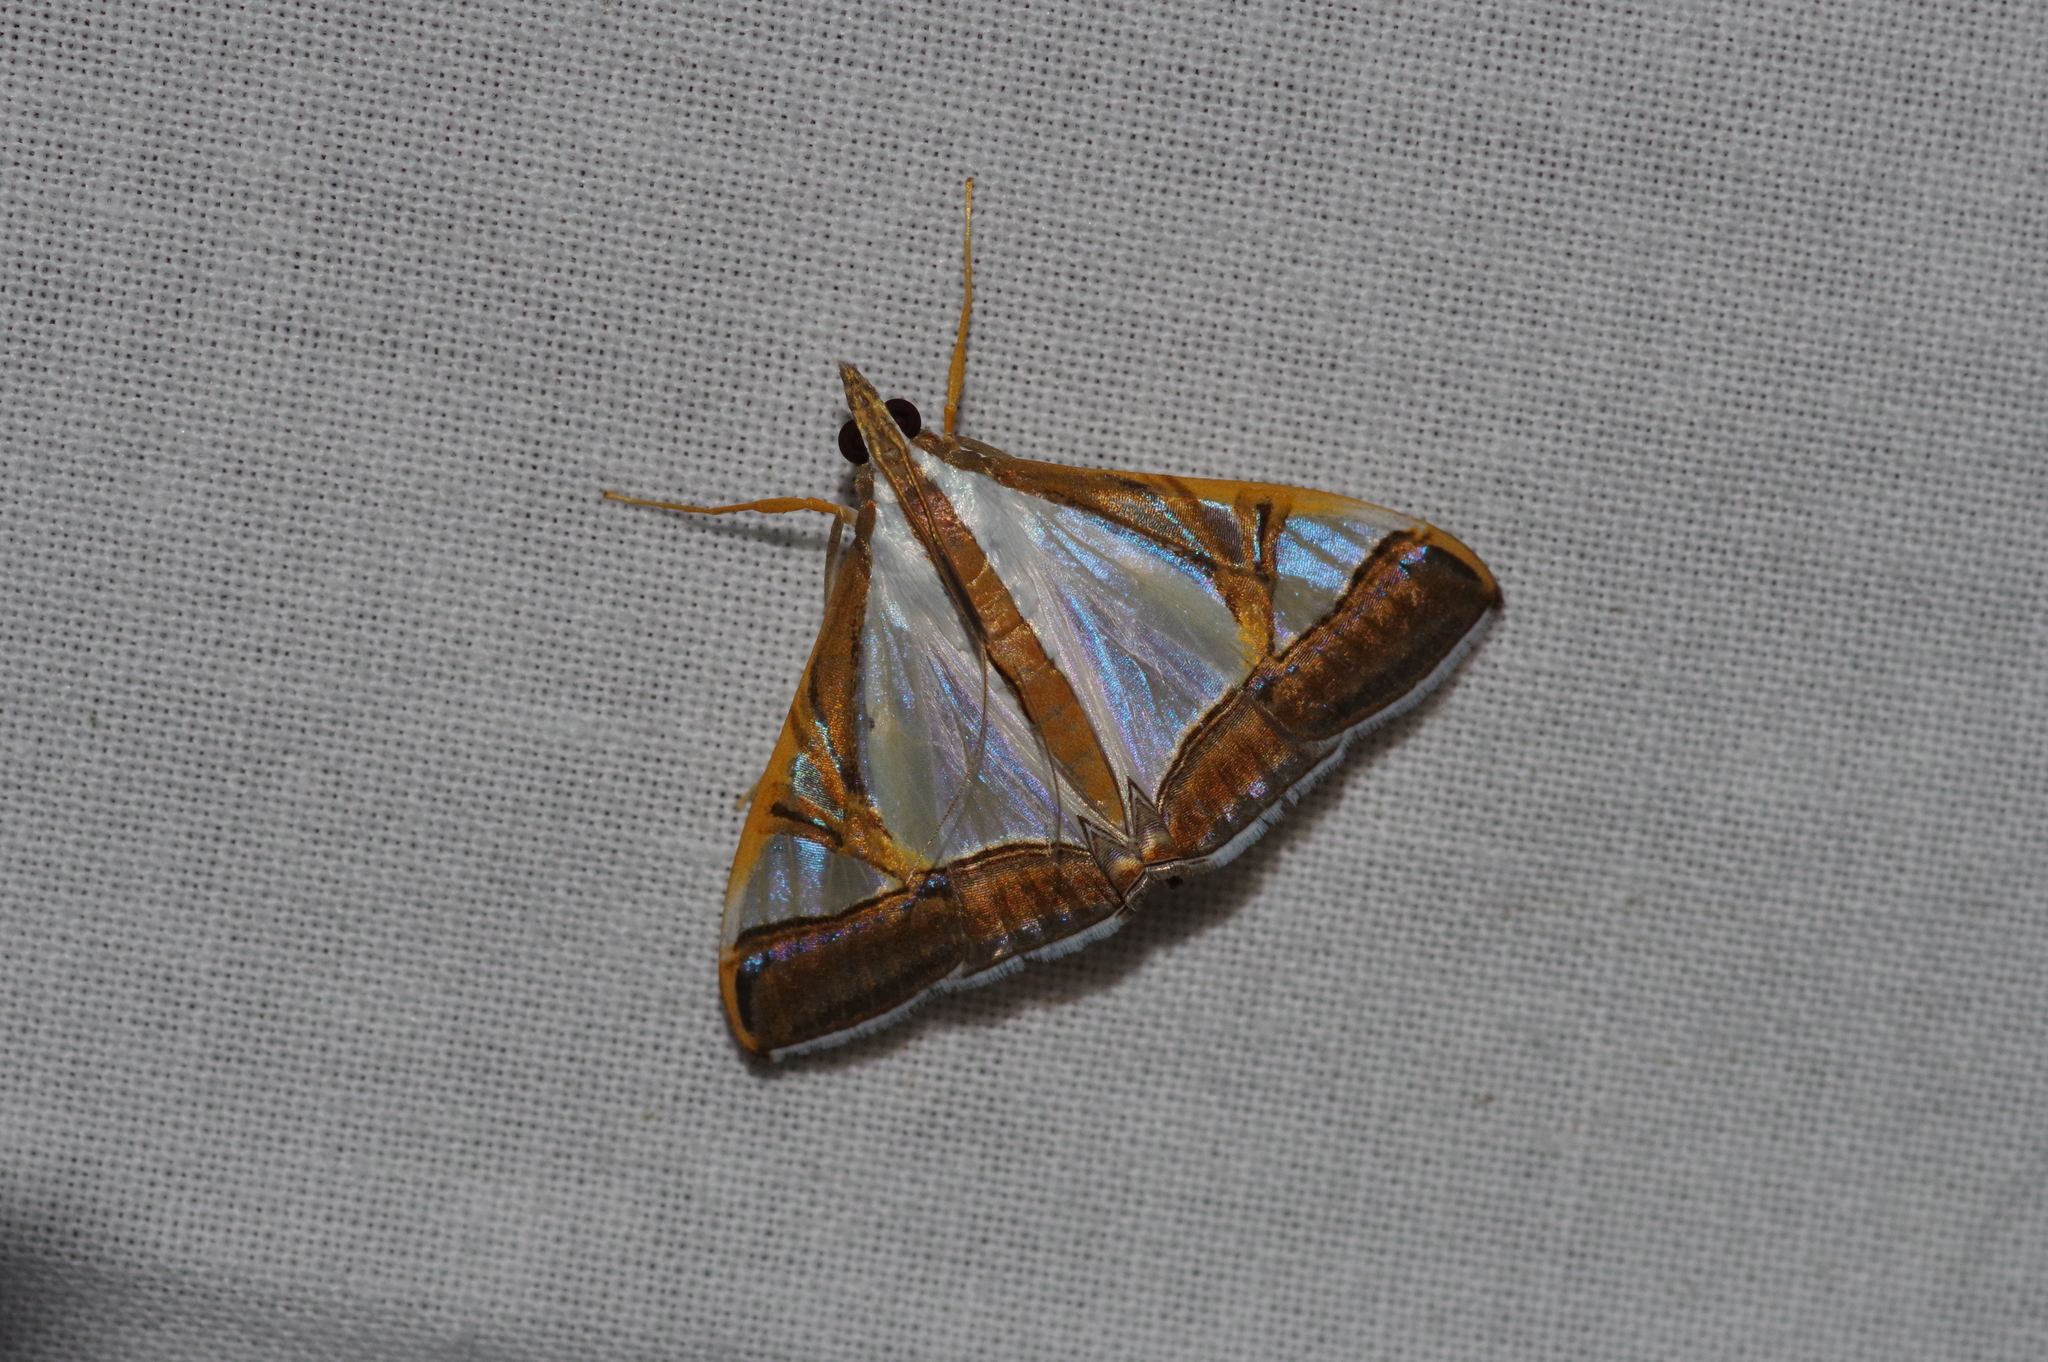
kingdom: Animalia
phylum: Arthropoda
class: Insecta
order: Lepidoptera
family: Crambidae
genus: Agrioglypta
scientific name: Agrioglypta eurytusalis
